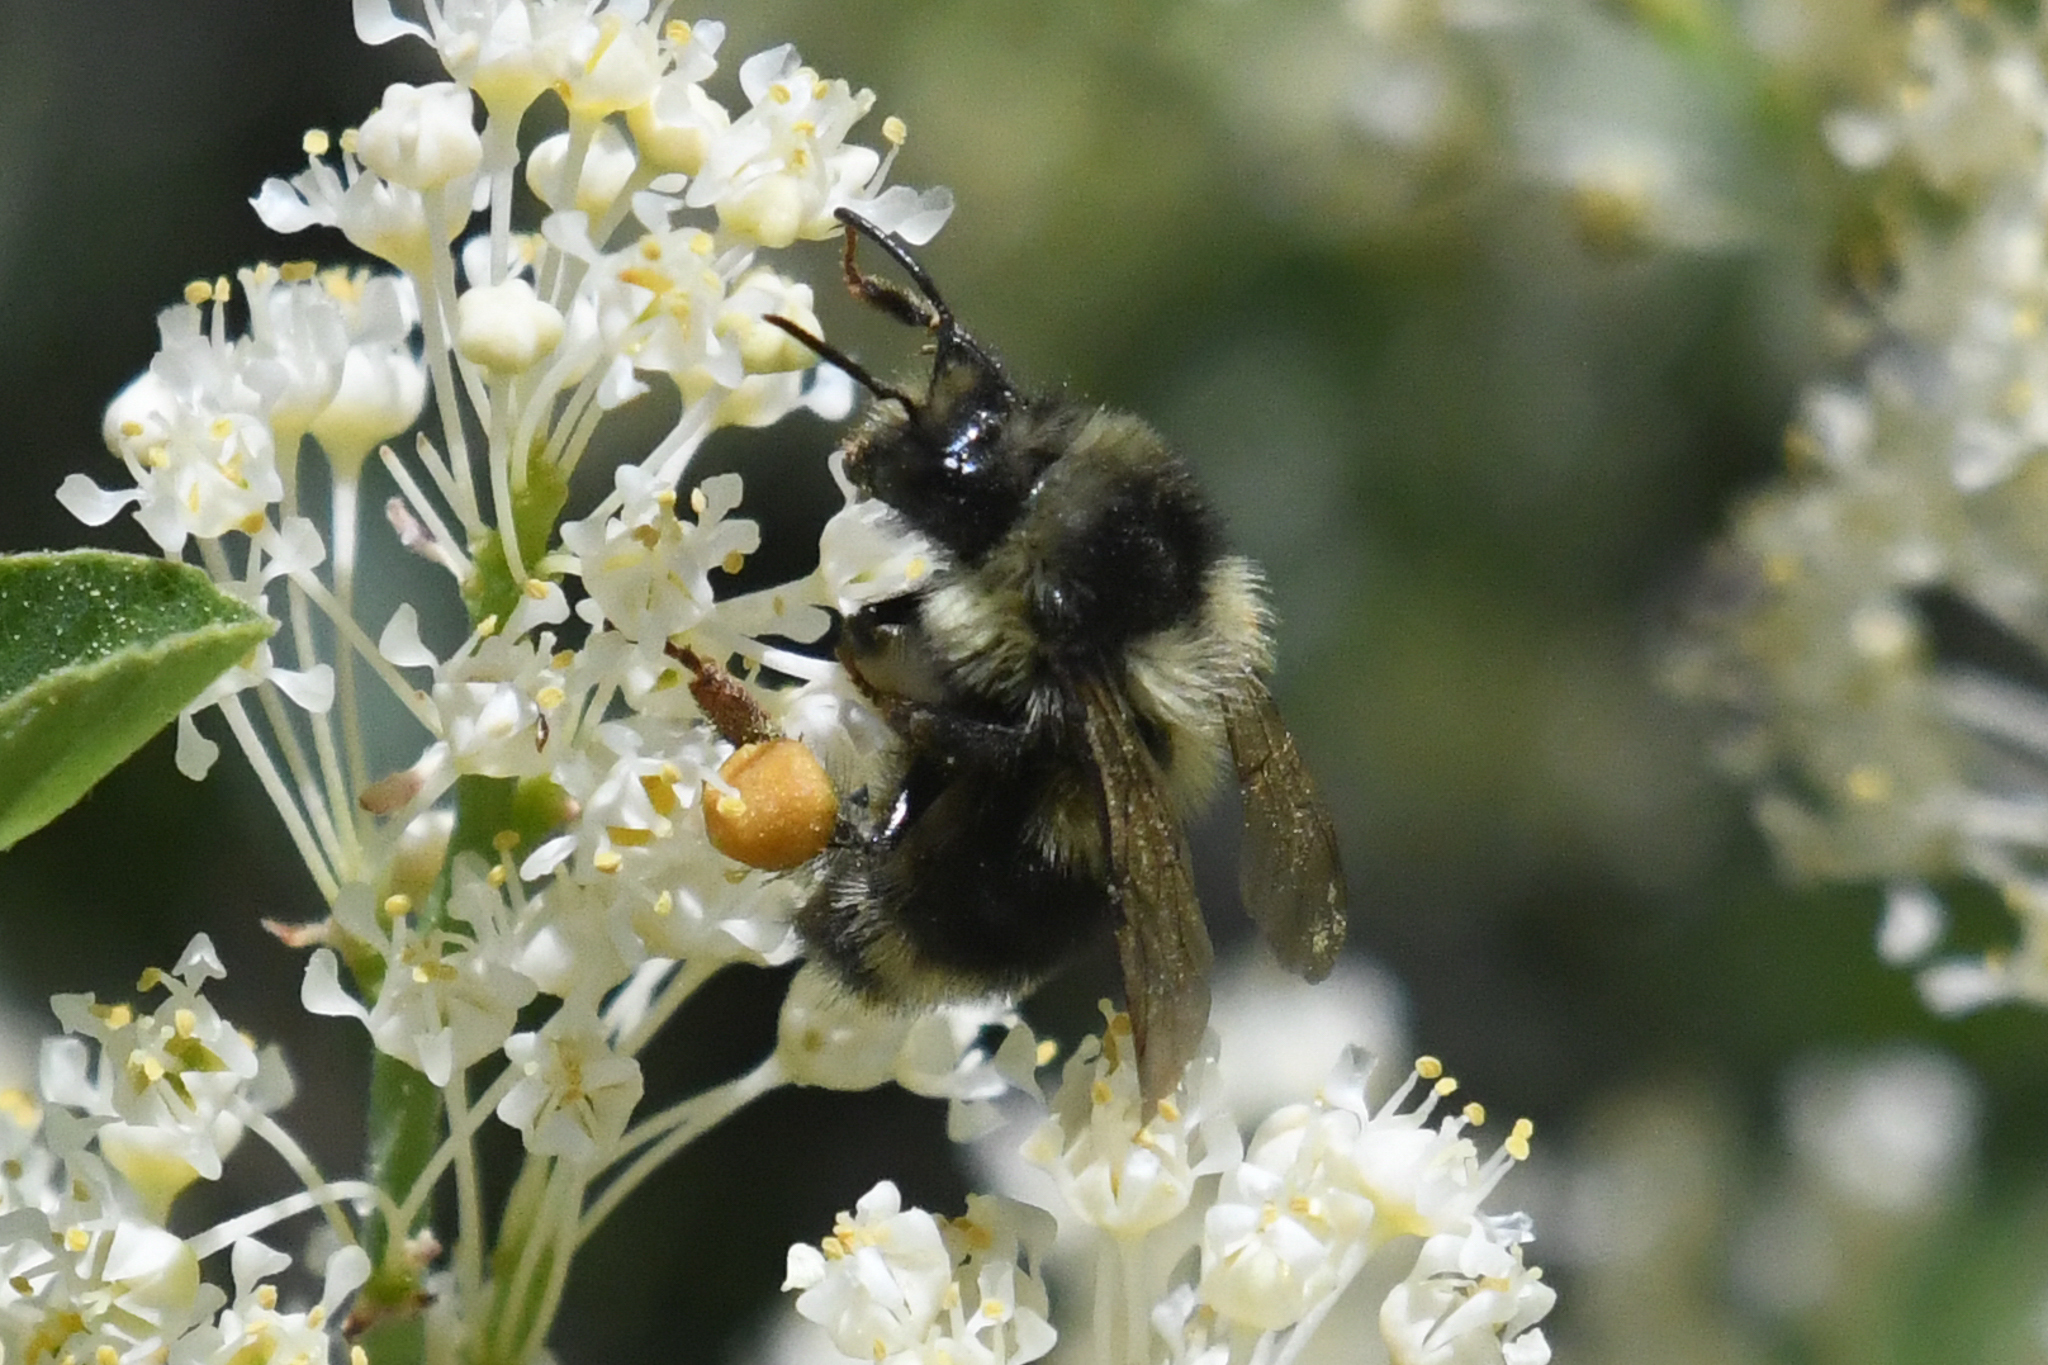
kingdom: Animalia
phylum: Arthropoda
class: Insecta
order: Hymenoptera
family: Apidae
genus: Bombus
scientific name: Bombus sylvicola
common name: Forest bumble bee
